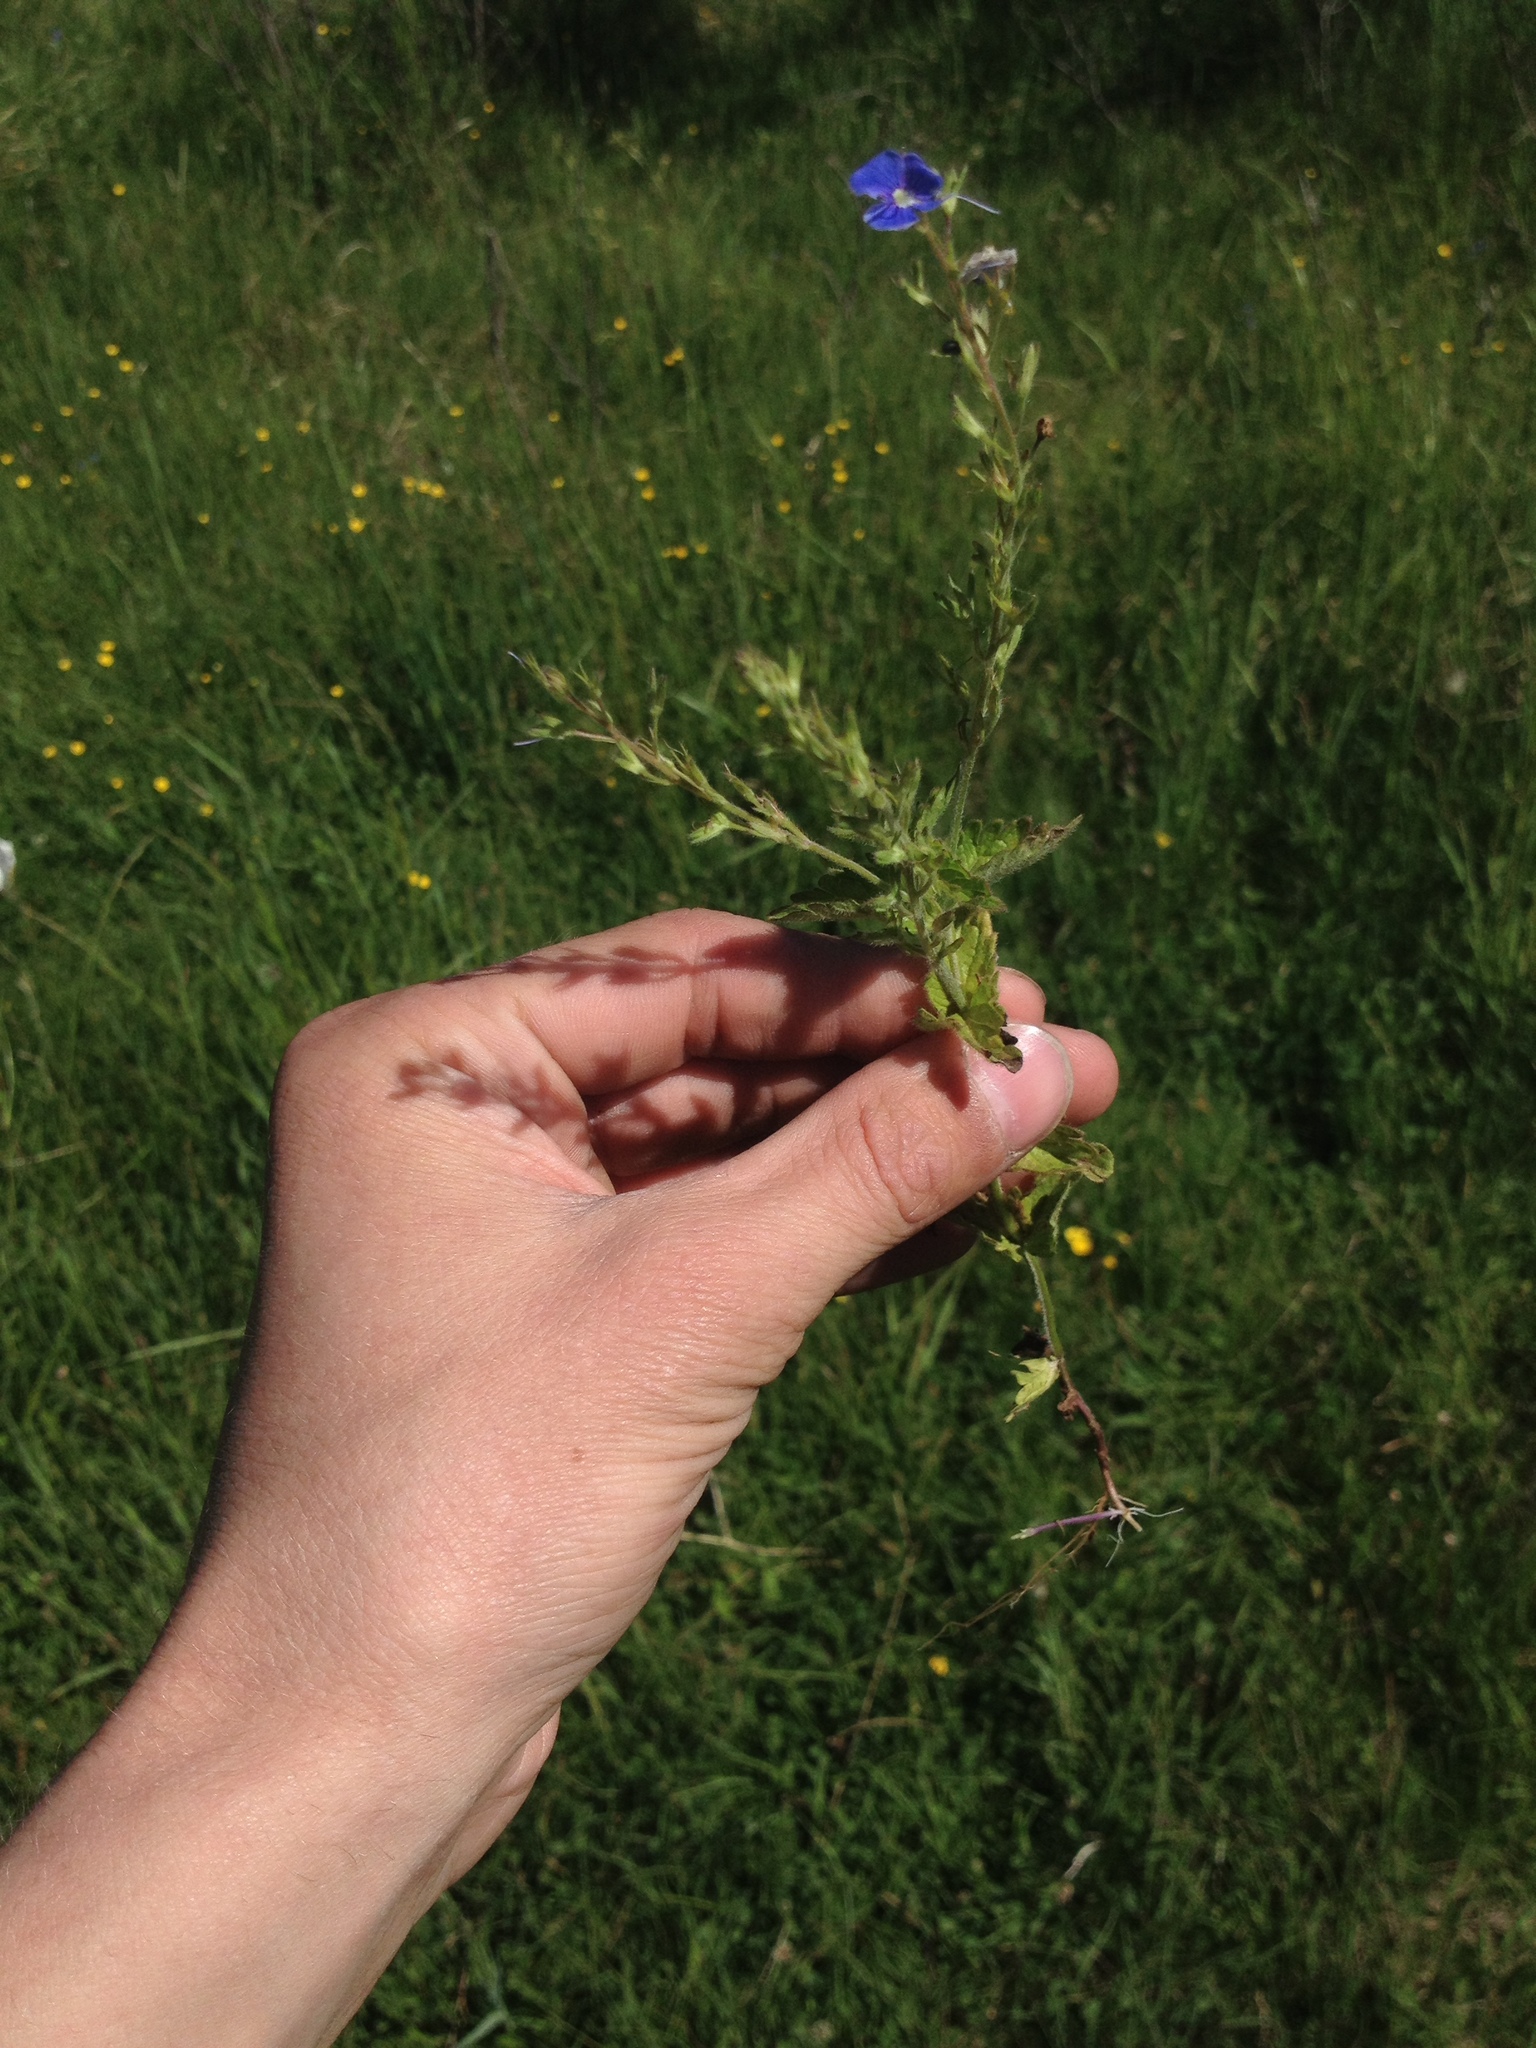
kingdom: Plantae
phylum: Tracheophyta
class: Magnoliopsida
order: Lamiales
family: Plantaginaceae
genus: Veronica
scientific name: Veronica chamaedrys
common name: Germander speedwell
